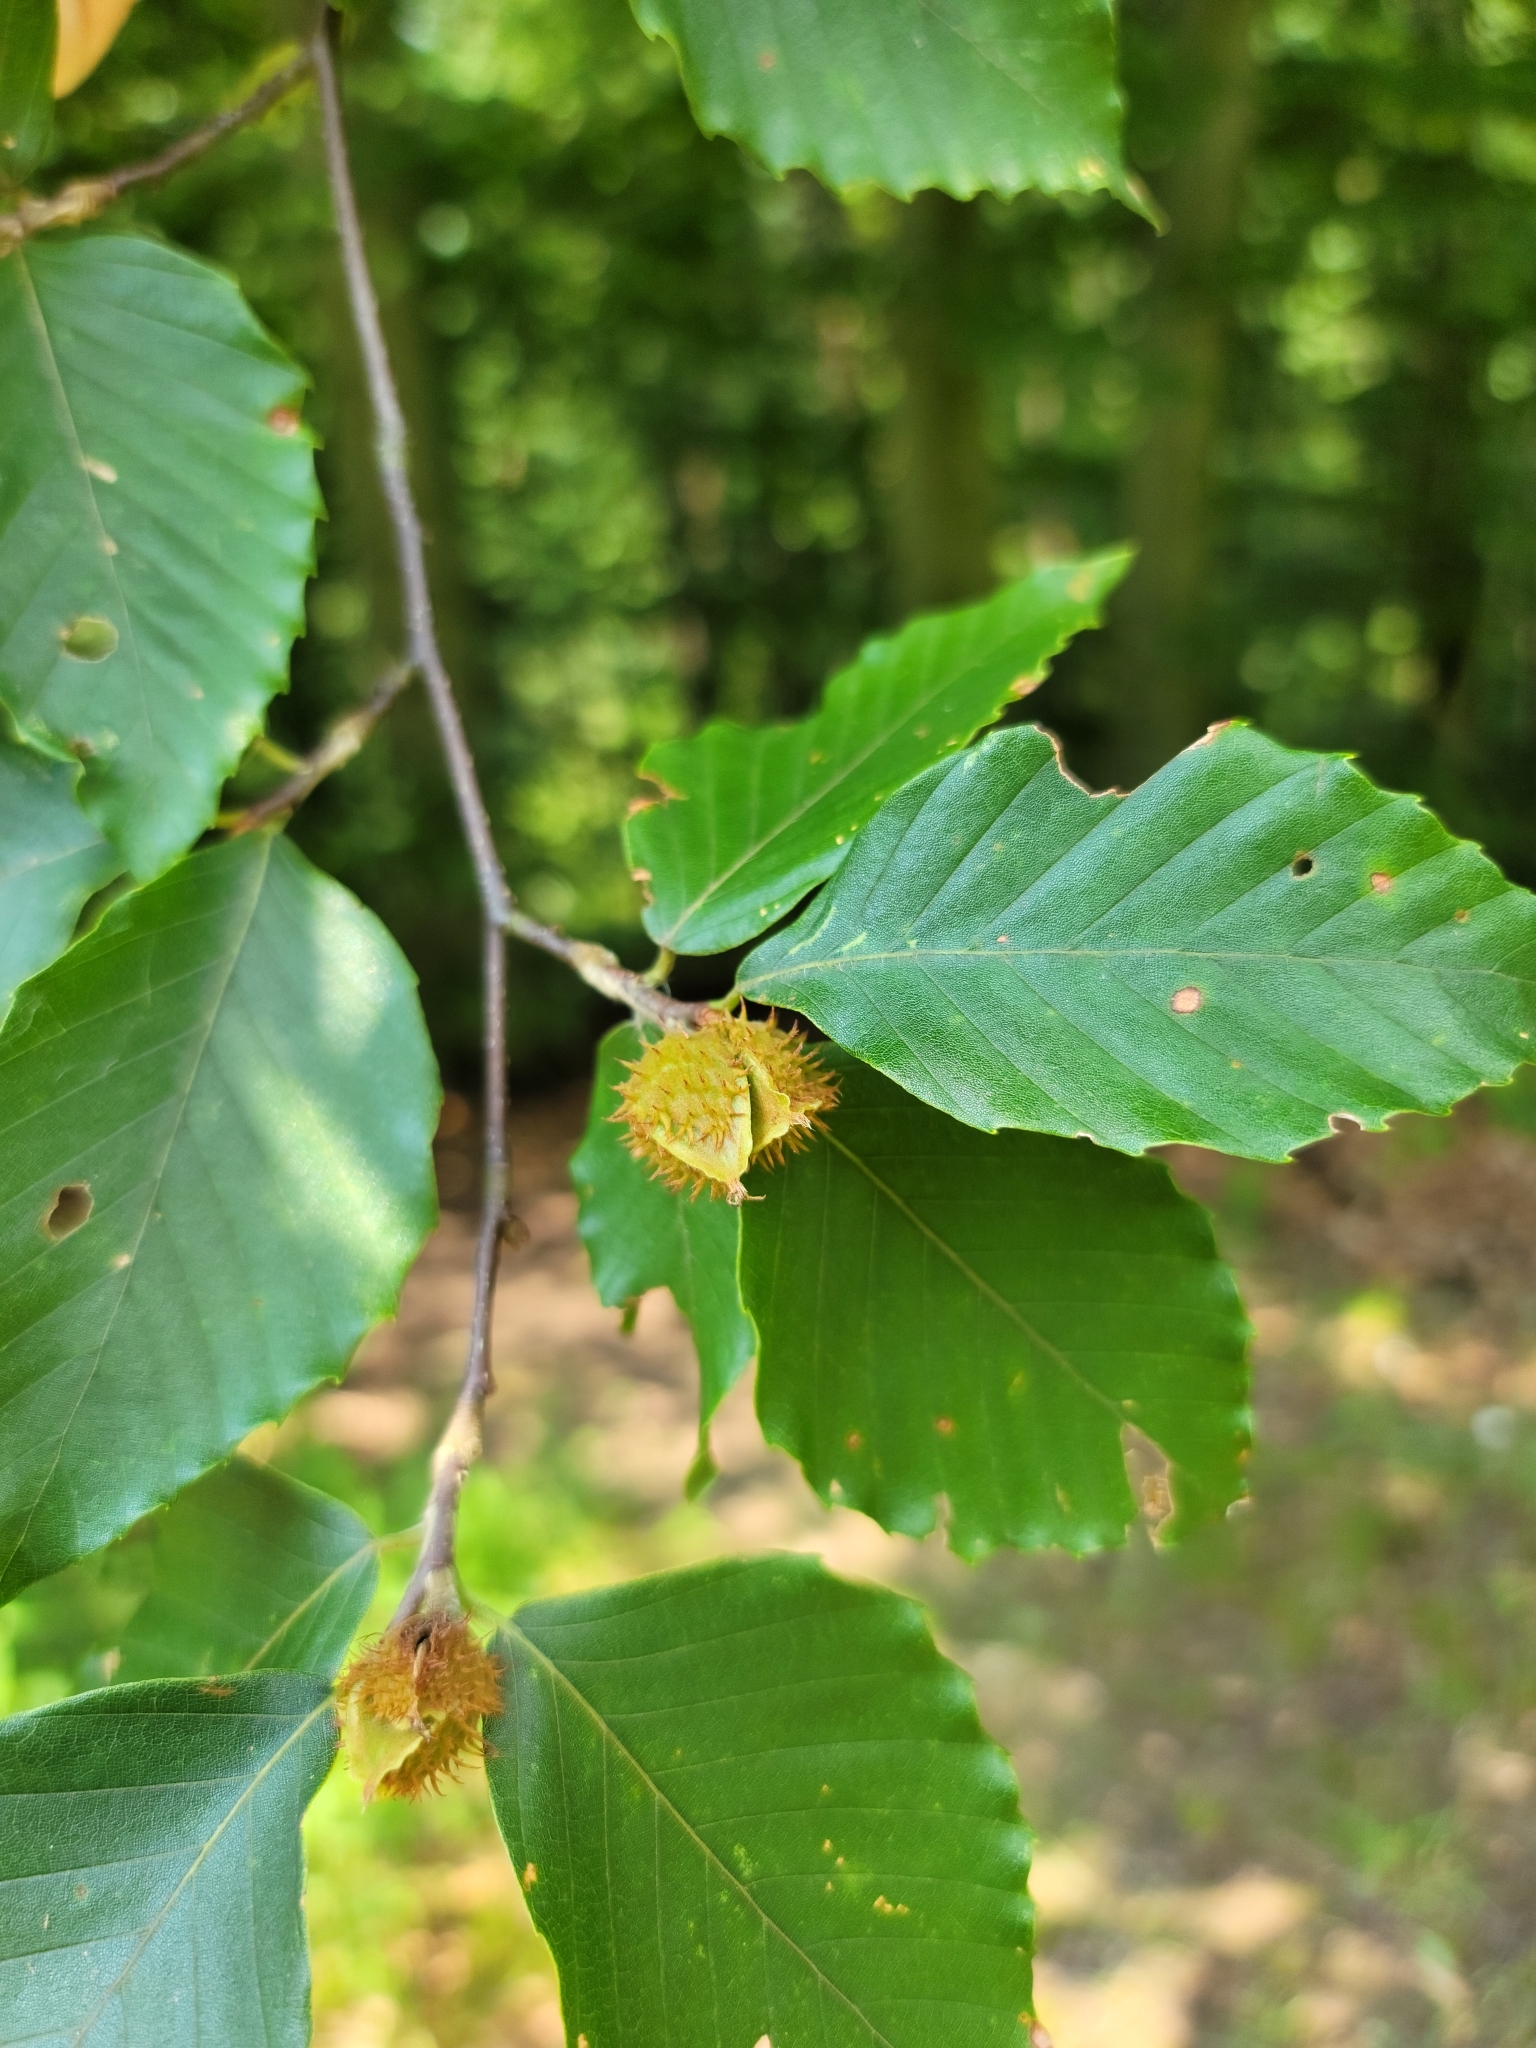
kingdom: Plantae
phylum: Tracheophyta
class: Magnoliopsida
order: Fagales
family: Fagaceae
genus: Fagus
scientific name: Fagus grandifolia
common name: American beech
